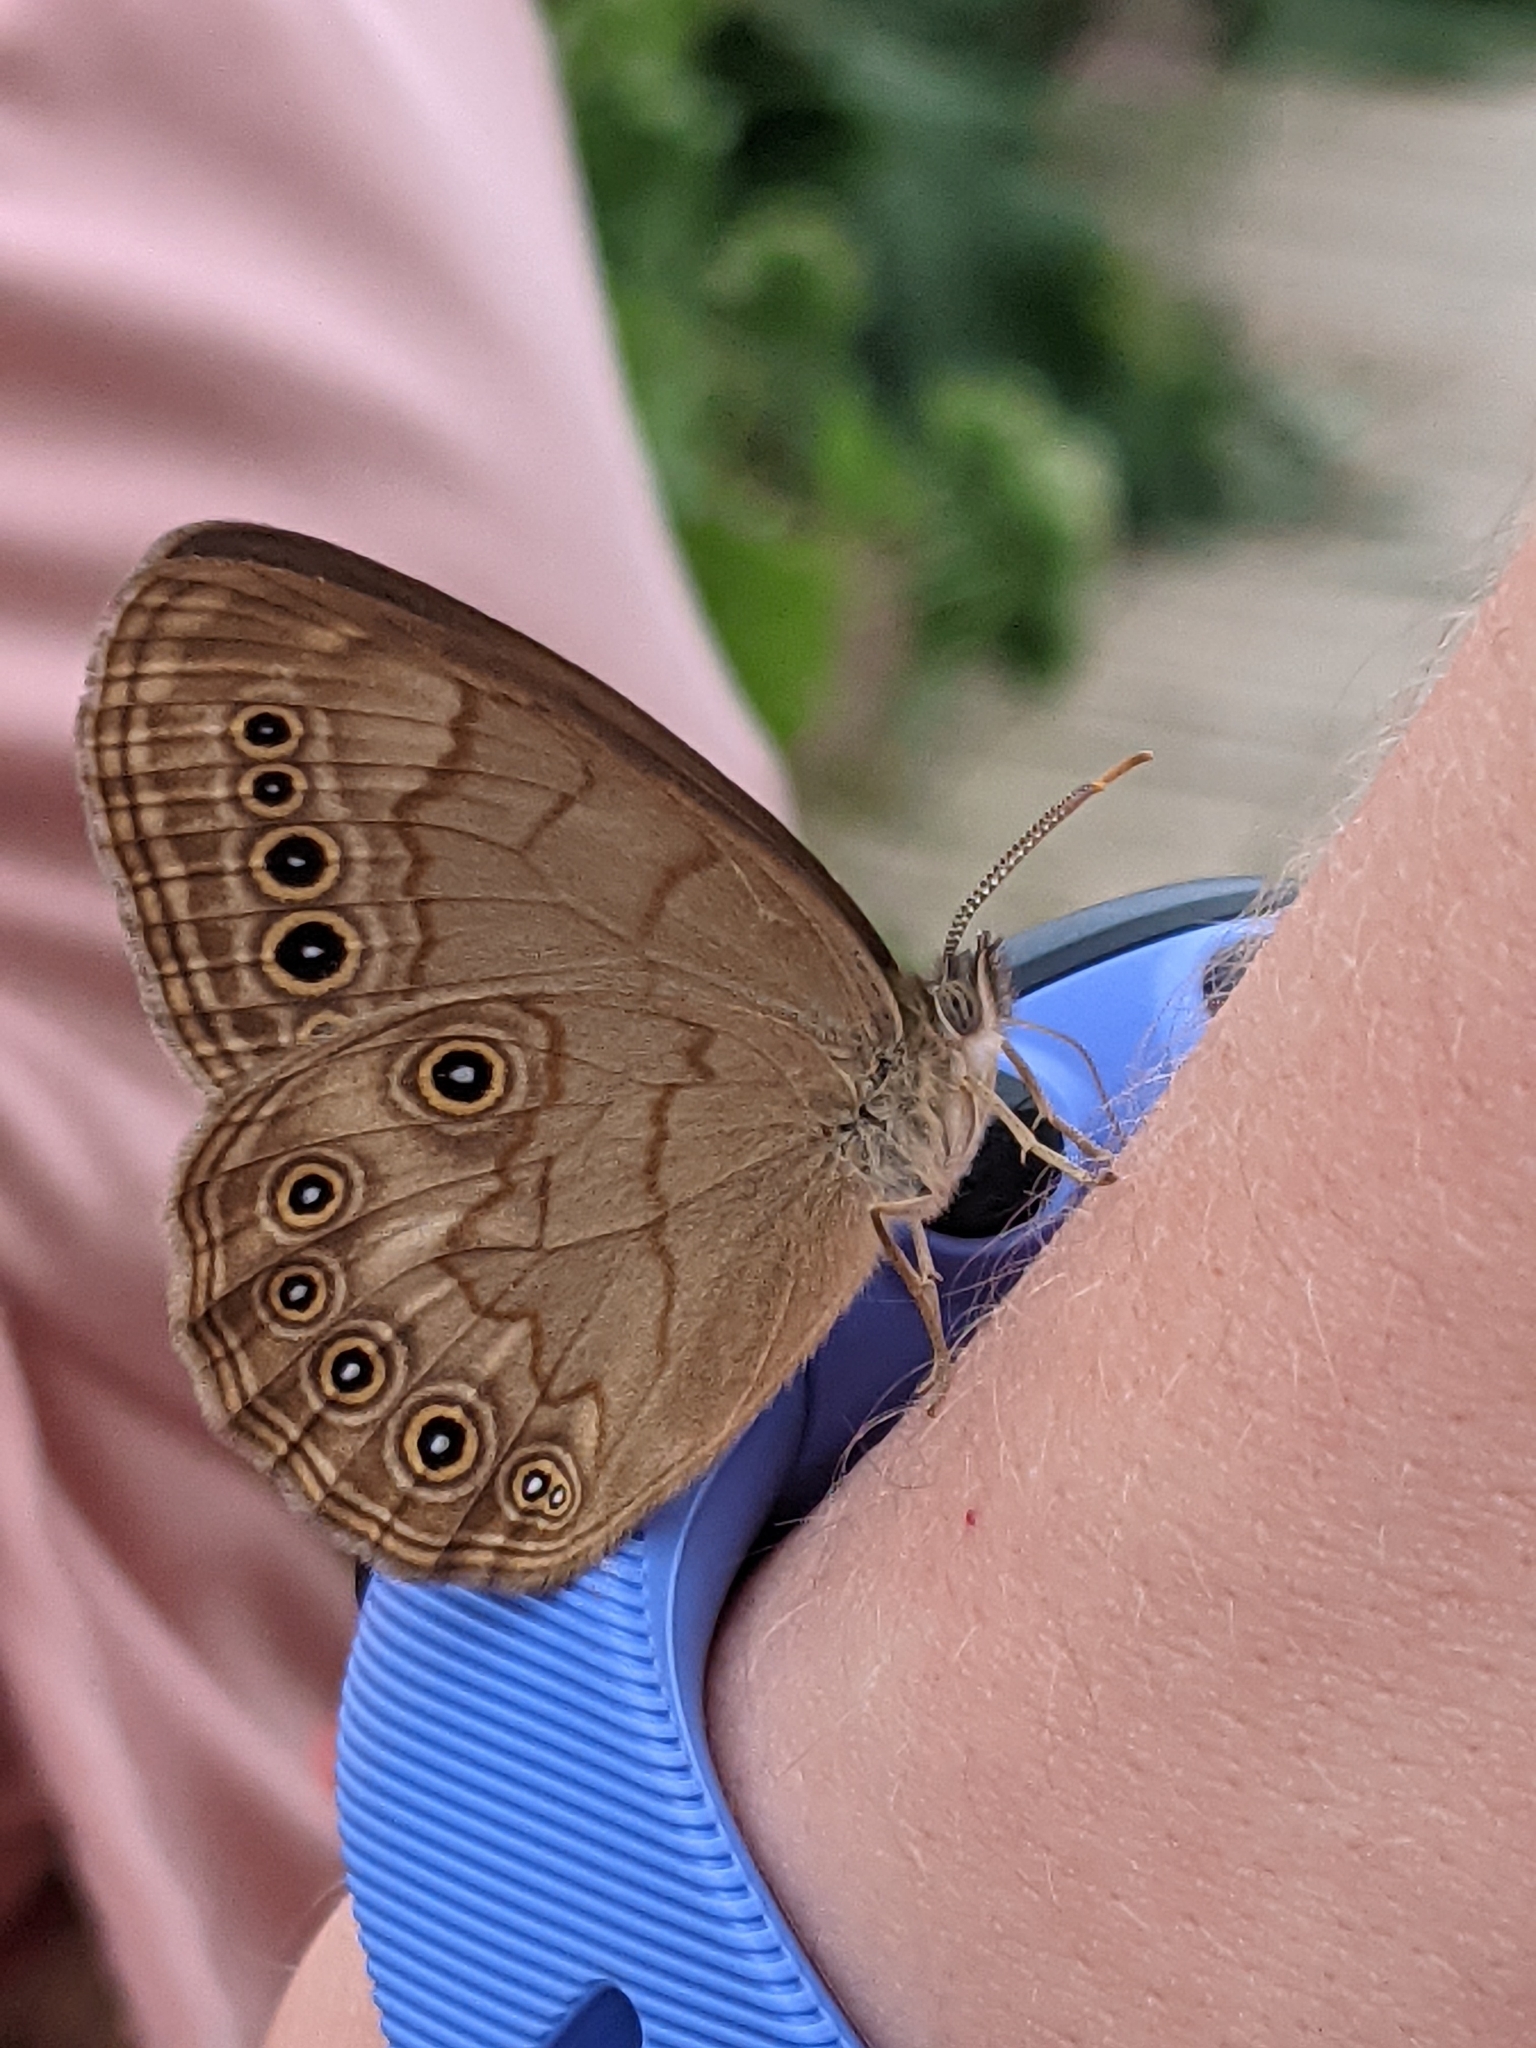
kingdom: Animalia
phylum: Arthropoda
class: Insecta
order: Lepidoptera
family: Nymphalidae
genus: Lethe
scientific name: Lethe eurydice
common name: Eyed brown
